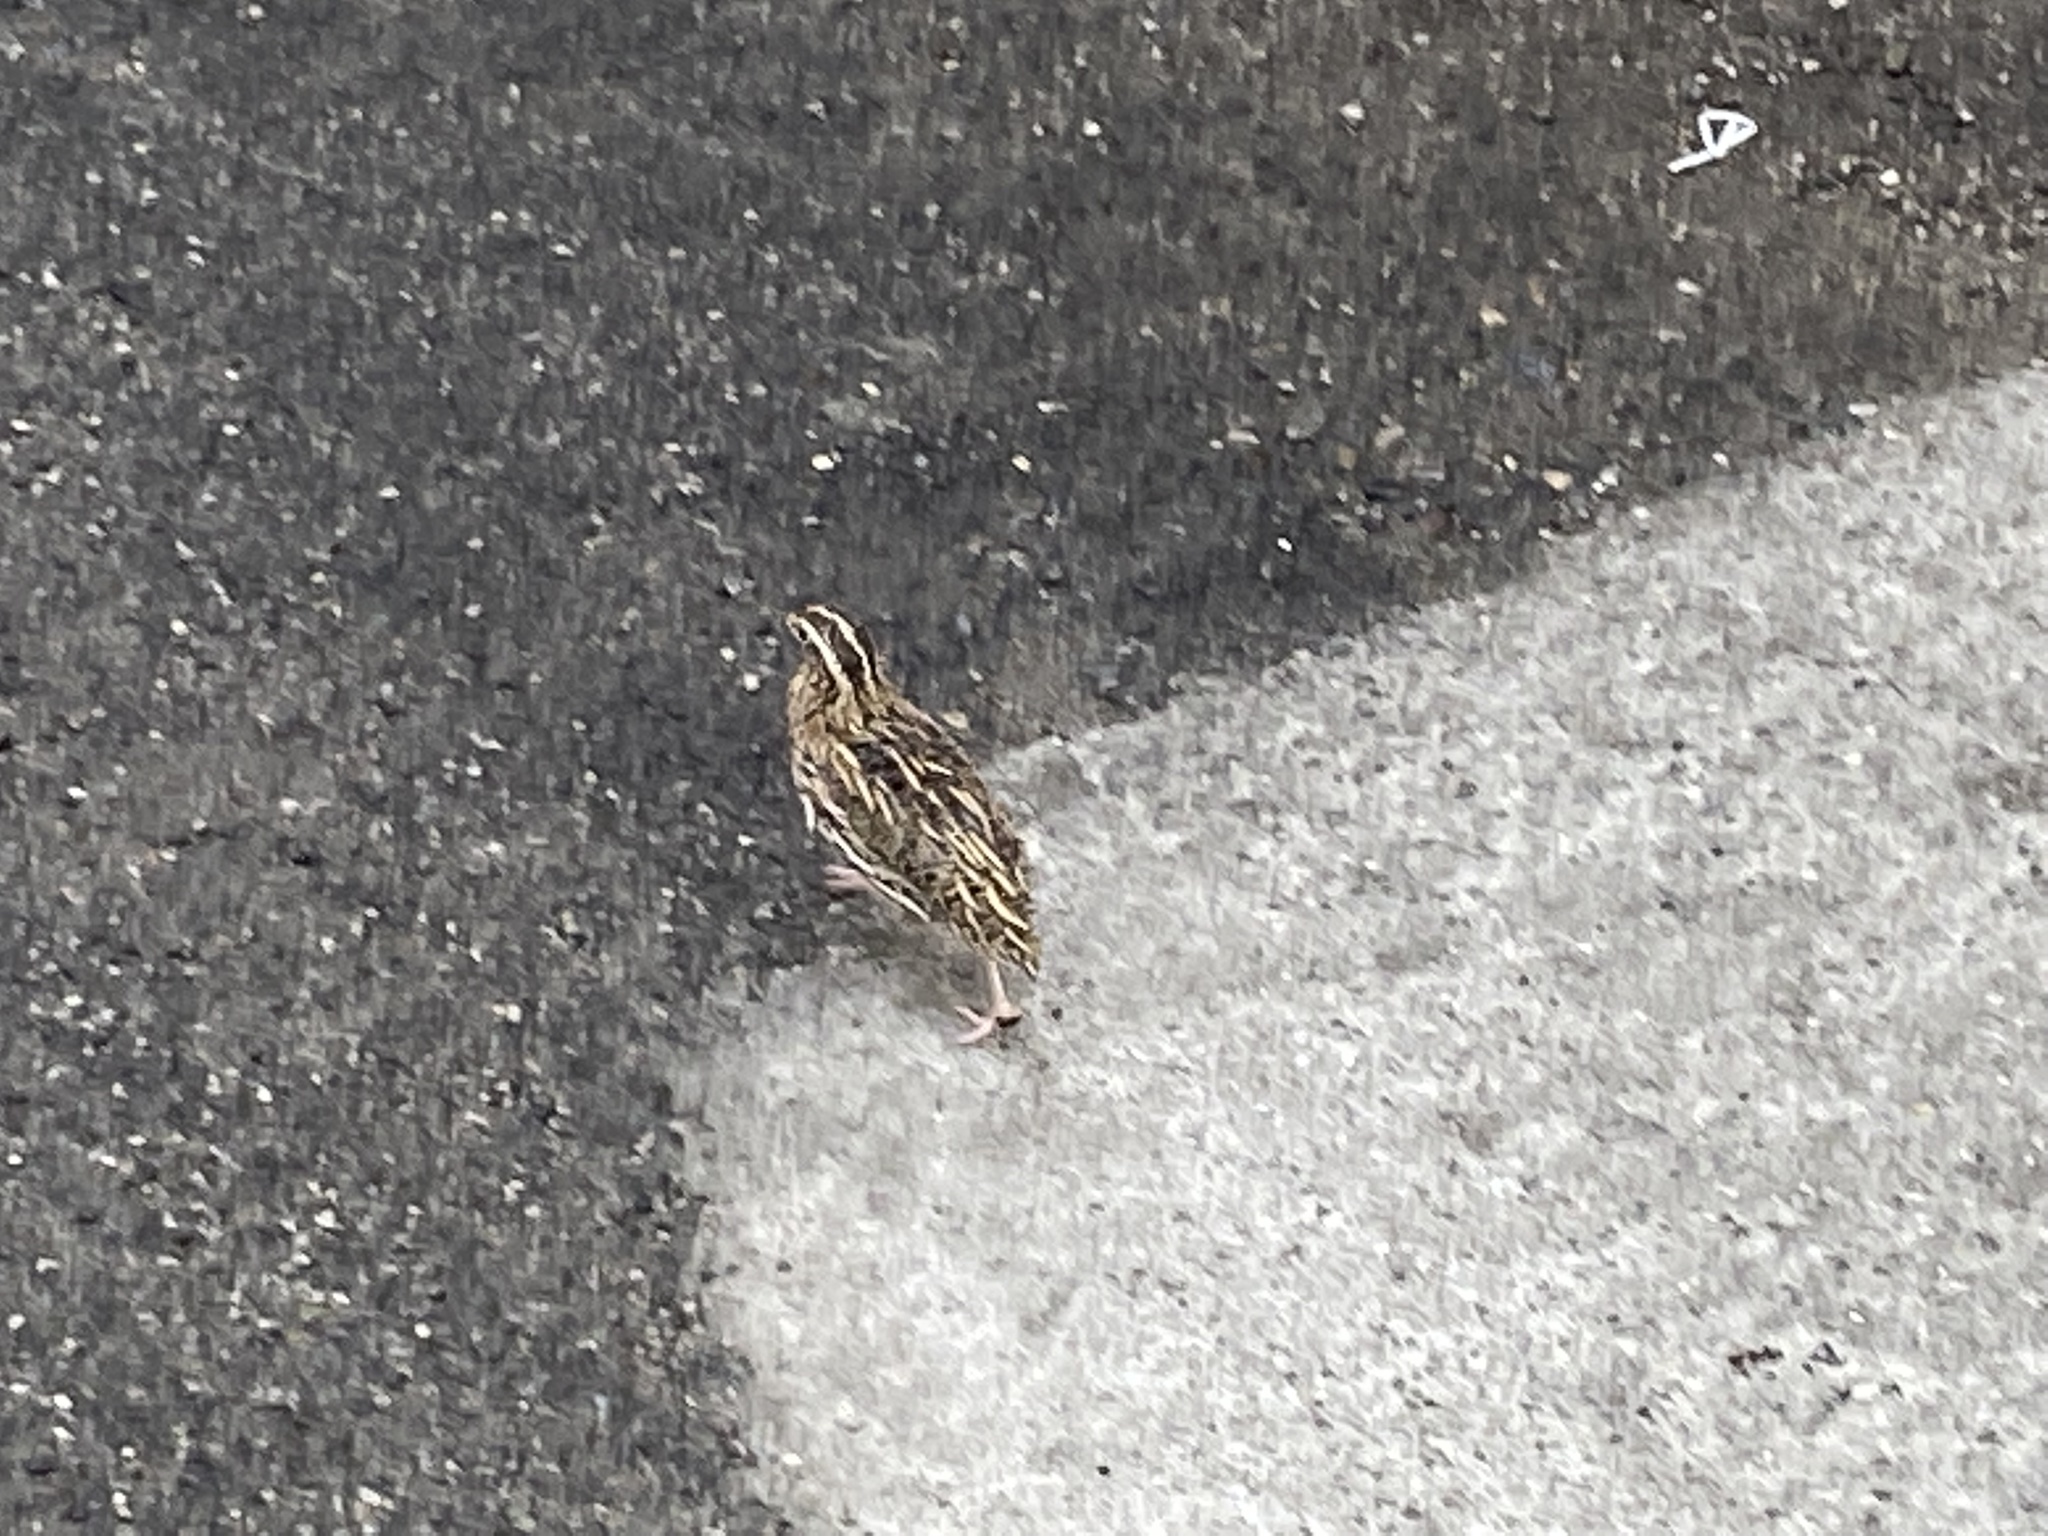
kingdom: Animalia
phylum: Chordata
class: Aves
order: Galliformes
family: Phasianidae
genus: Coturnix
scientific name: Coturnix coturnix
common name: Common quail
